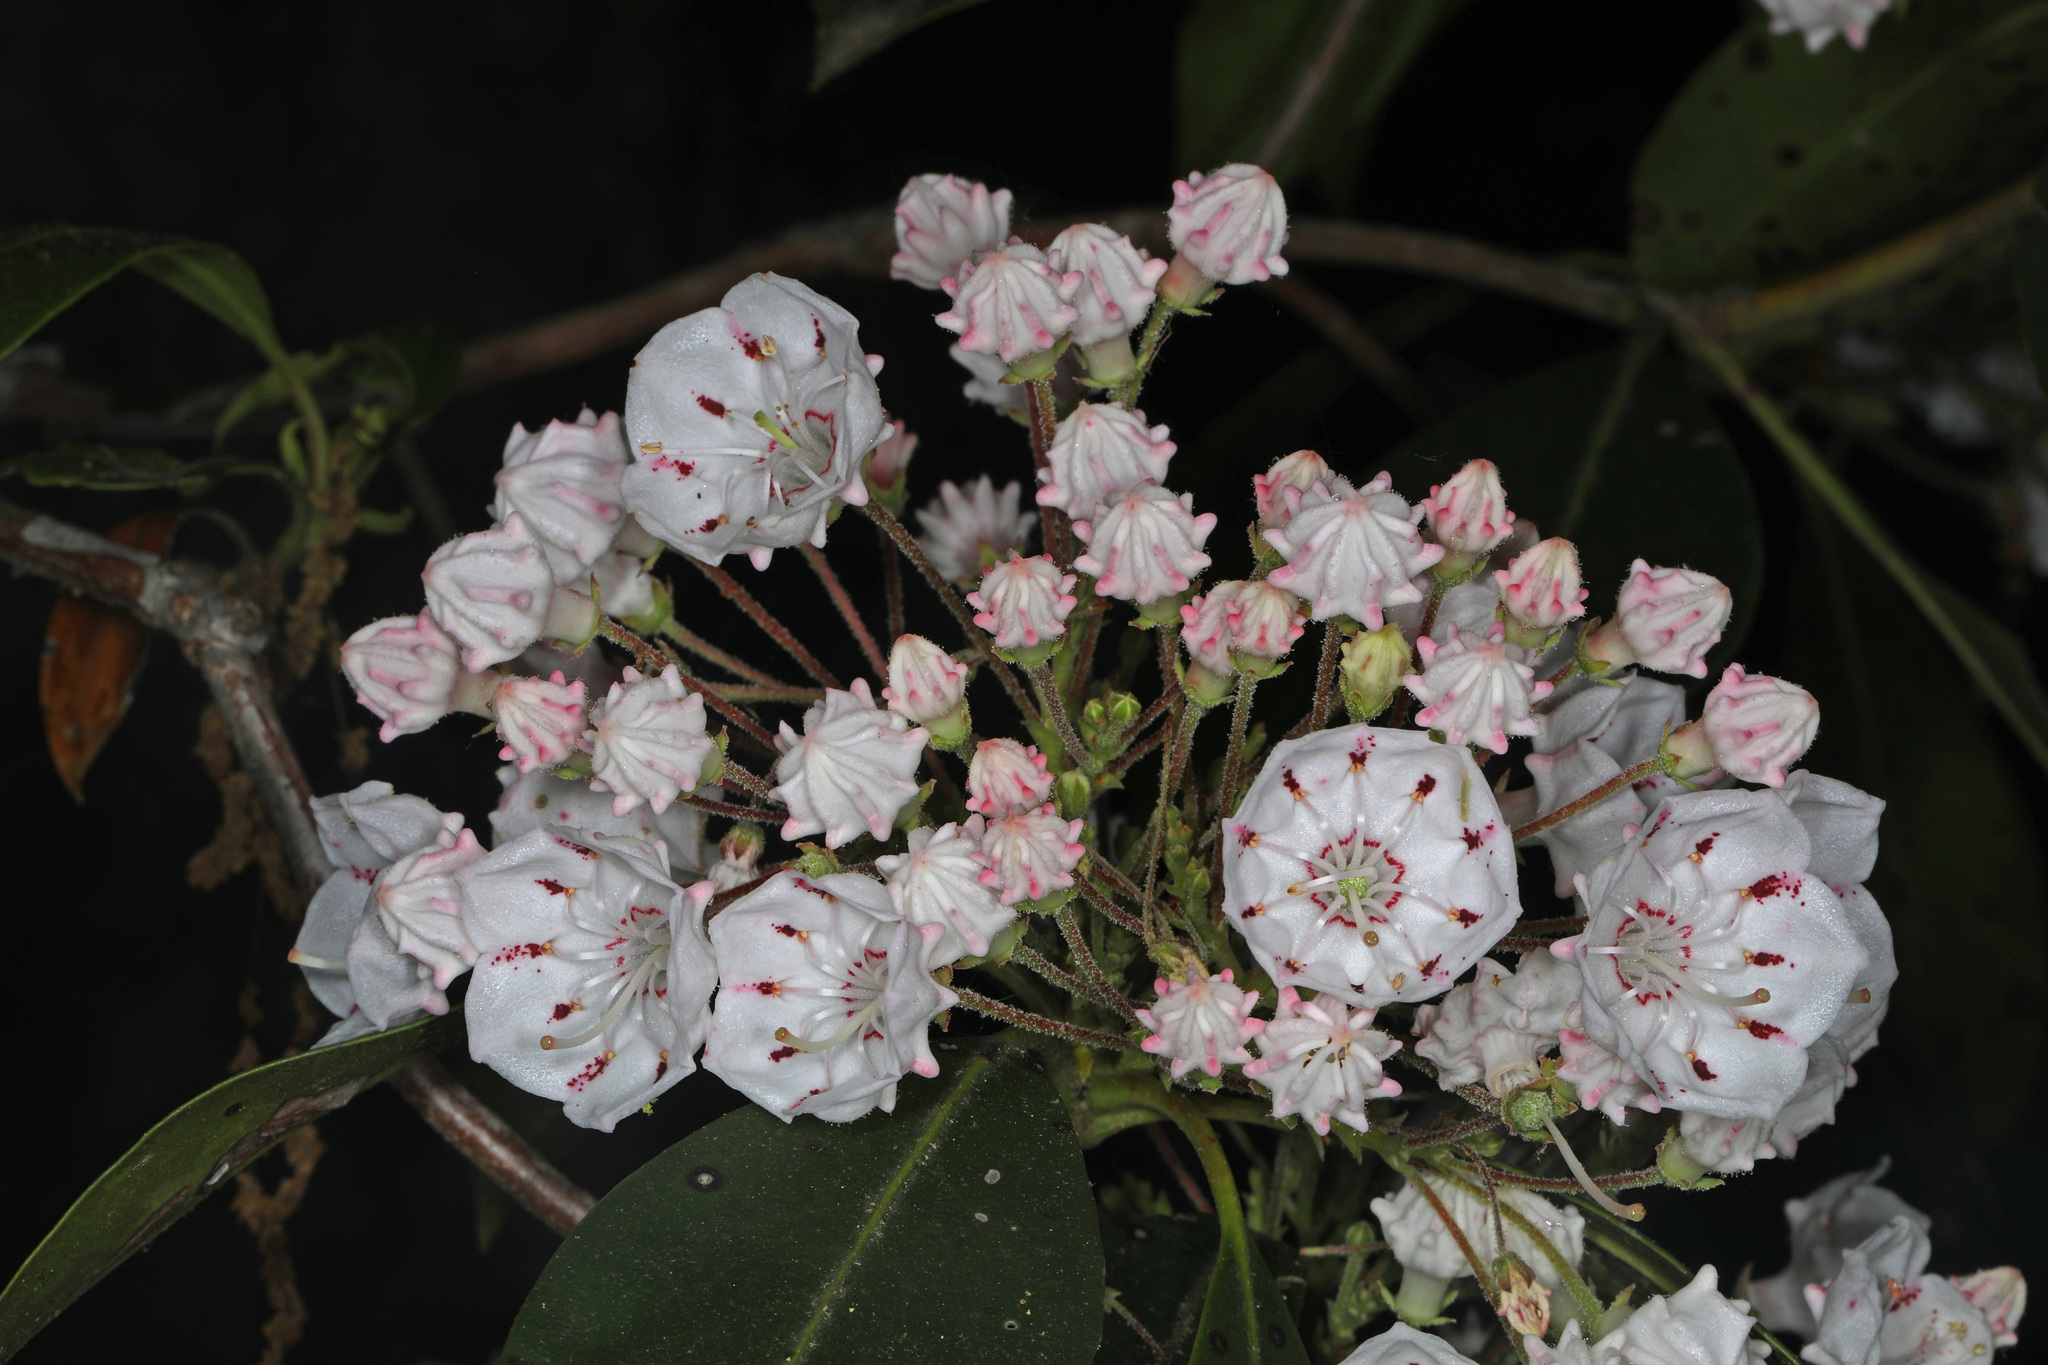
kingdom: Plantae
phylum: Tracheophyta
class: Magnoliopsida
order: Ericales
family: Ericaceae
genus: Kalmia
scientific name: Kalmia latifolia
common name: Mountain-laurel
